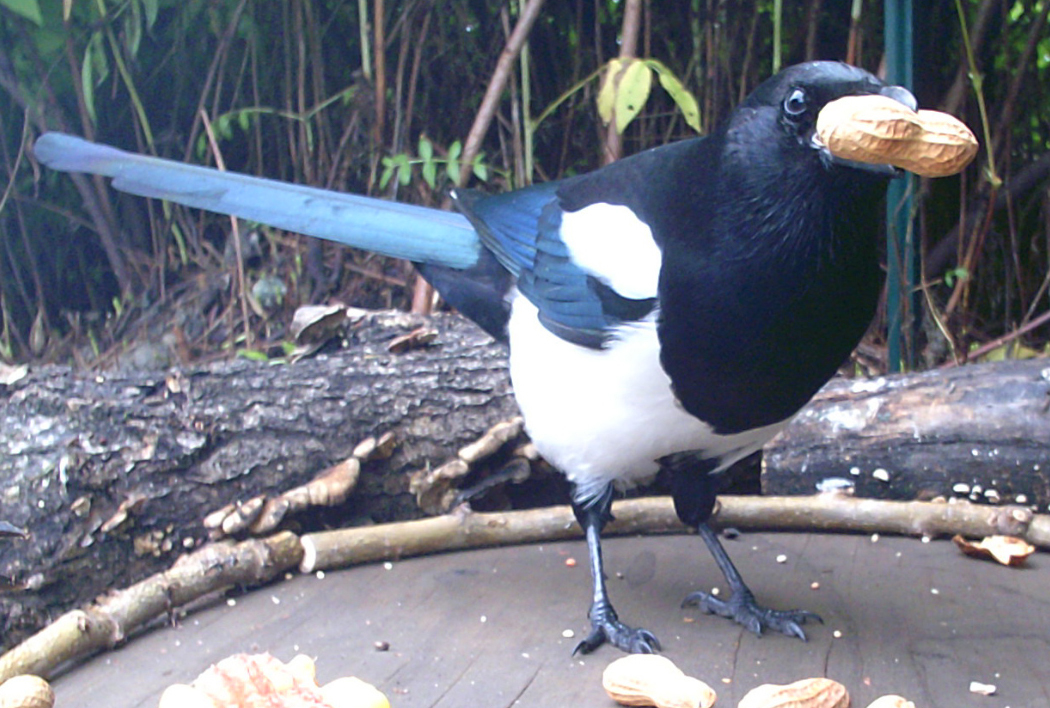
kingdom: Animalia
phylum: Chordata
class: Aves
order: Passeriformes
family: Corvidae
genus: Pica
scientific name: Pica hudsonia
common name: Black-billed magpie
